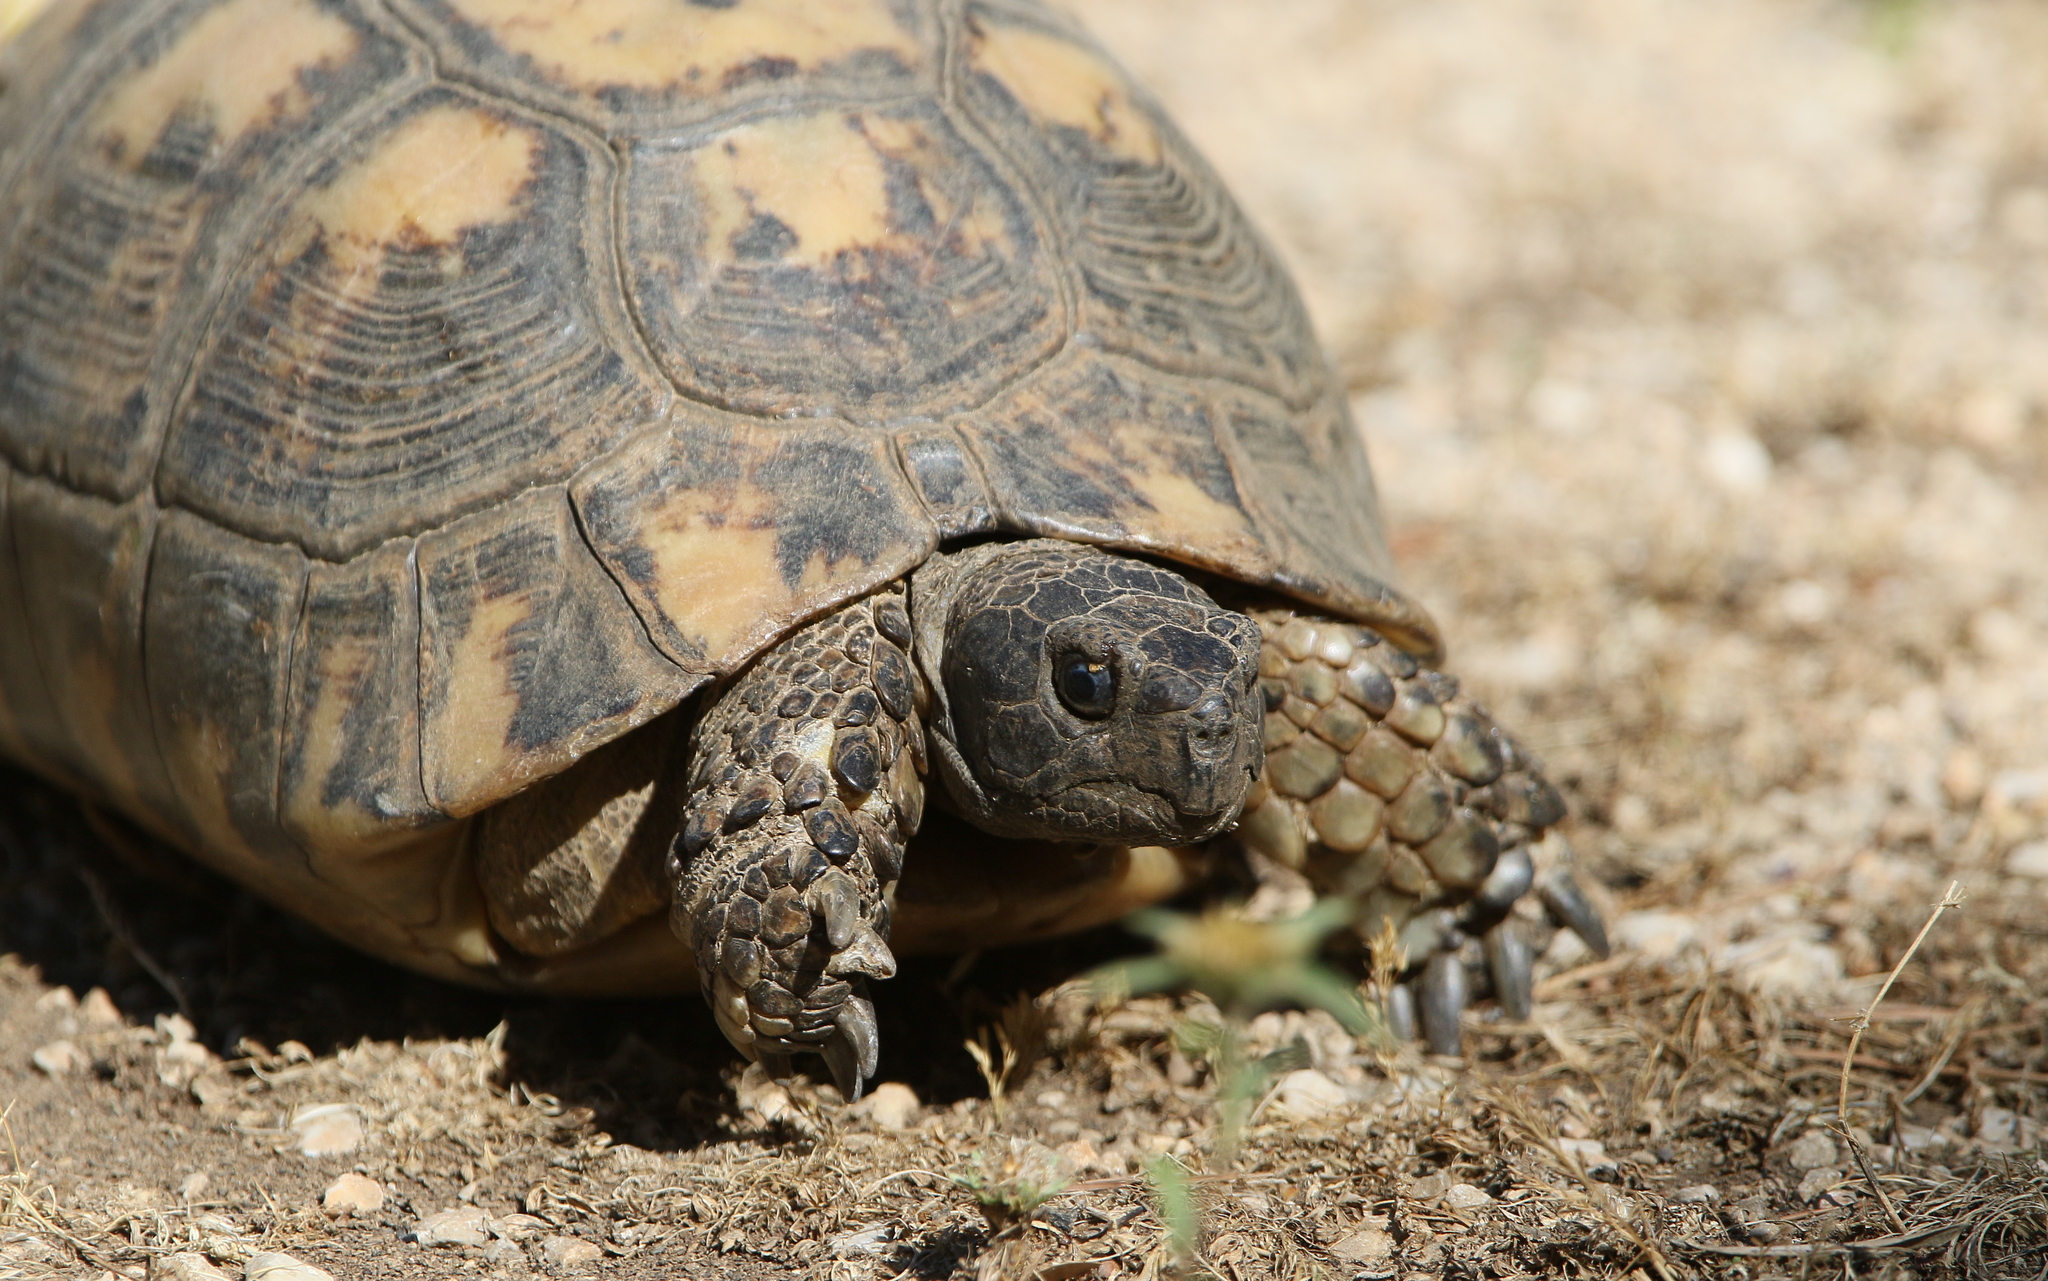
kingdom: Animalia
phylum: Chordata
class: Testudines
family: Testudinidae
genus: Testudo
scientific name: Testudo marginata
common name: Marginated tortoise
